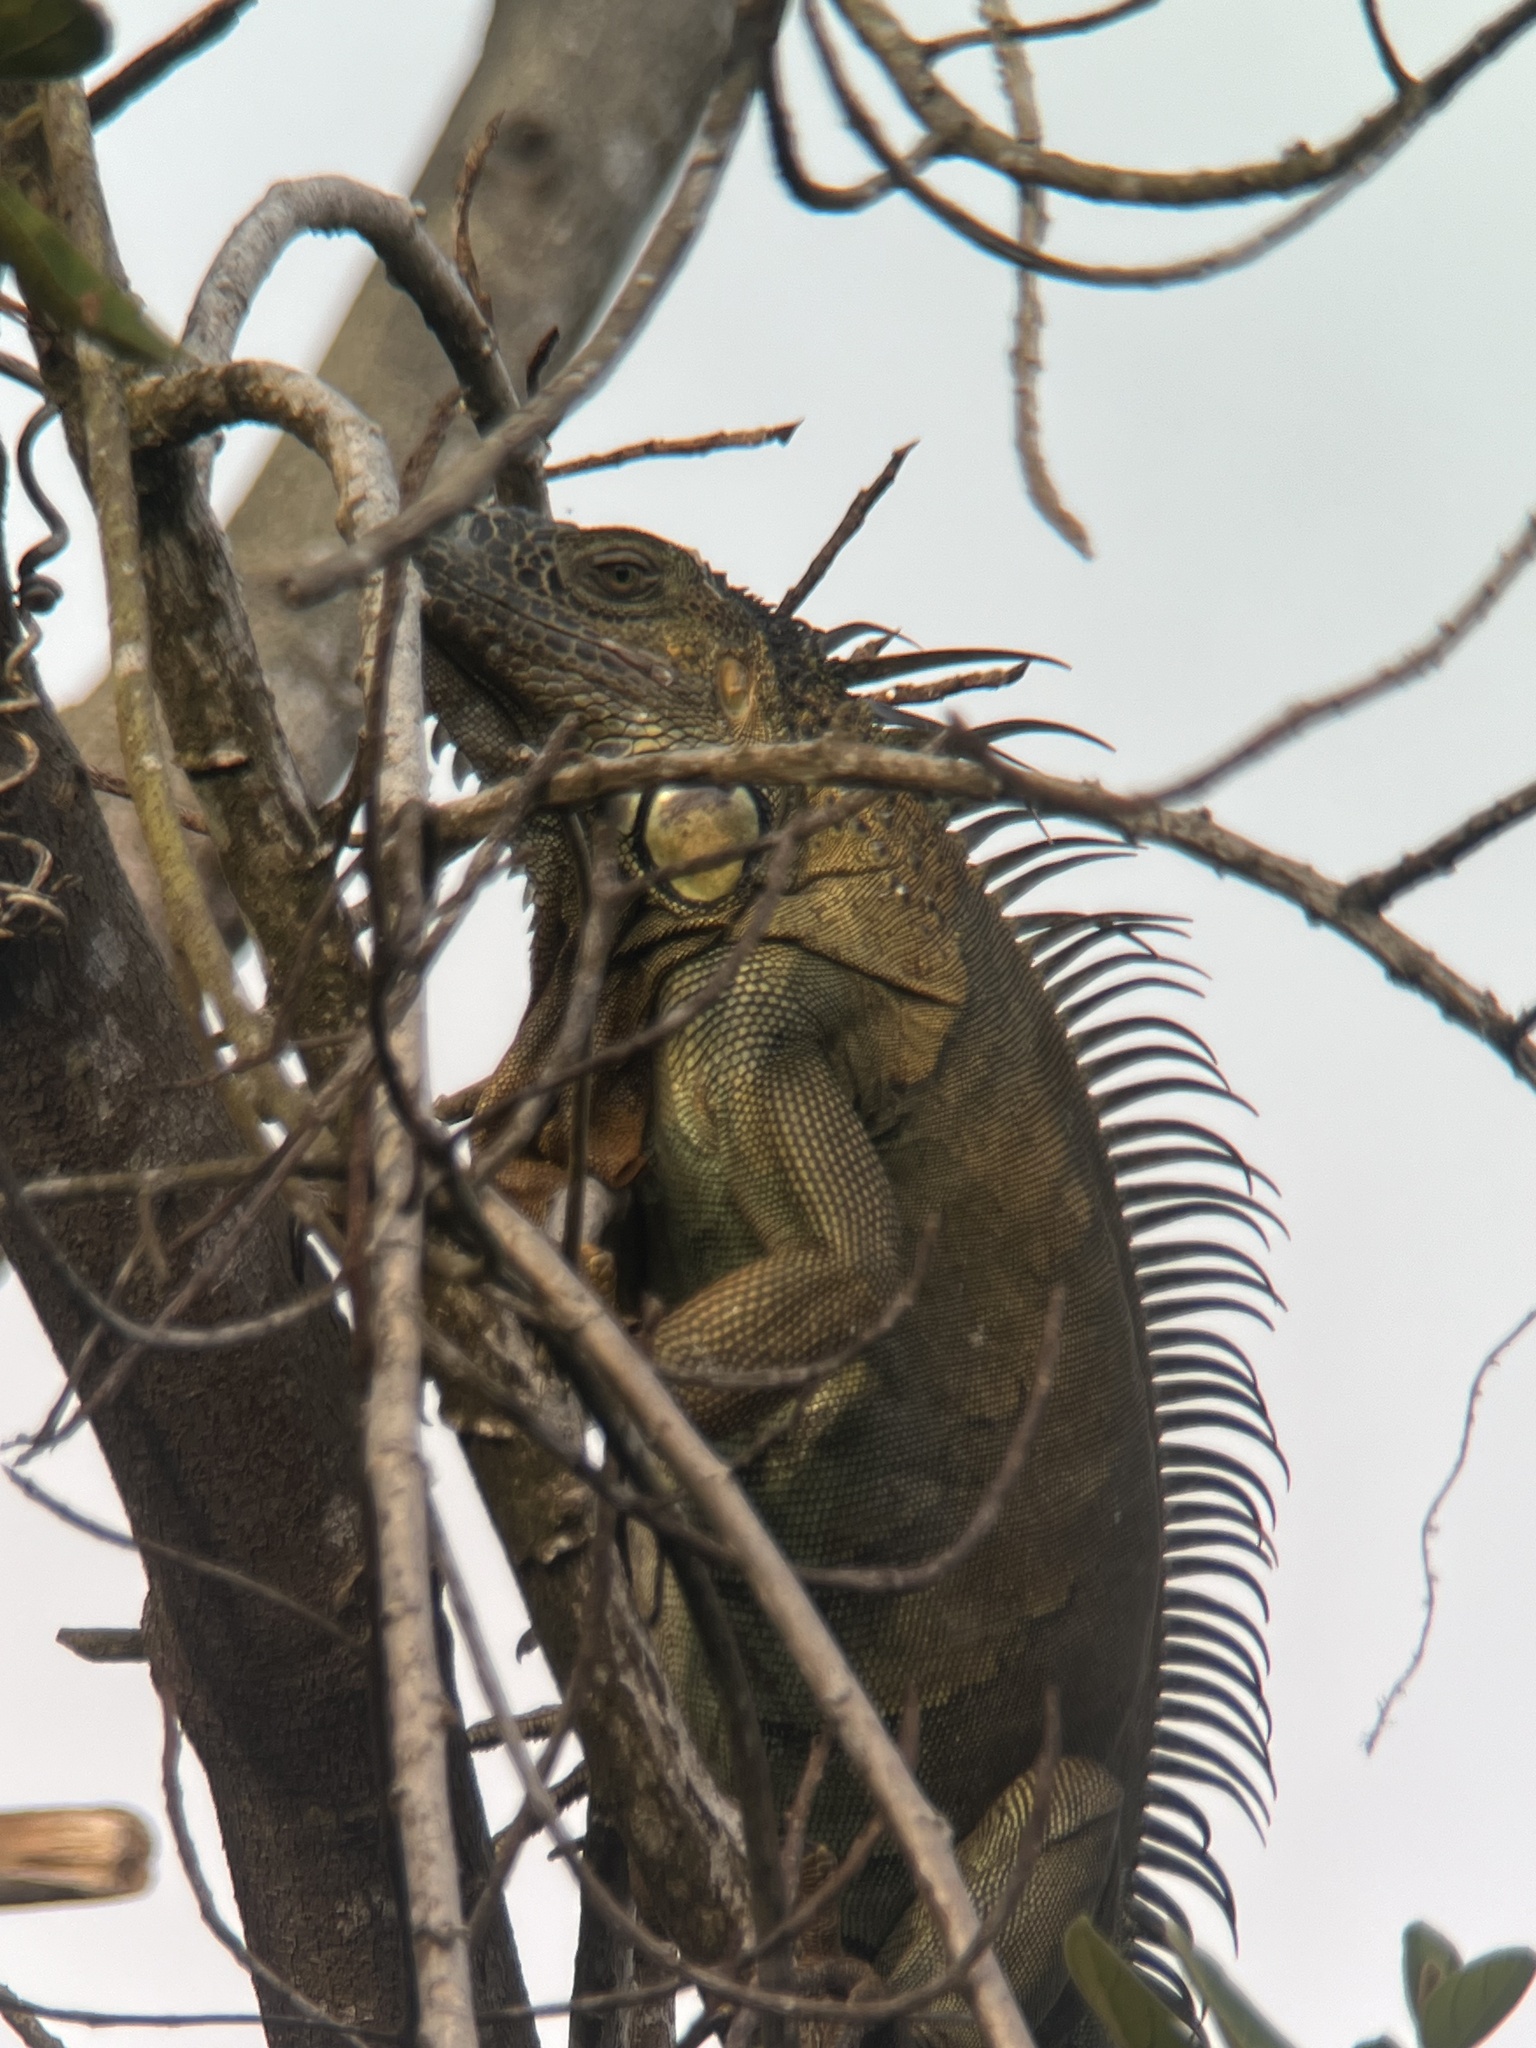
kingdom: Animalia
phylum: Chordata
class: Squamata
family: Iguanidae
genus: Iguana
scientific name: Iguana iguana
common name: Green iguana
